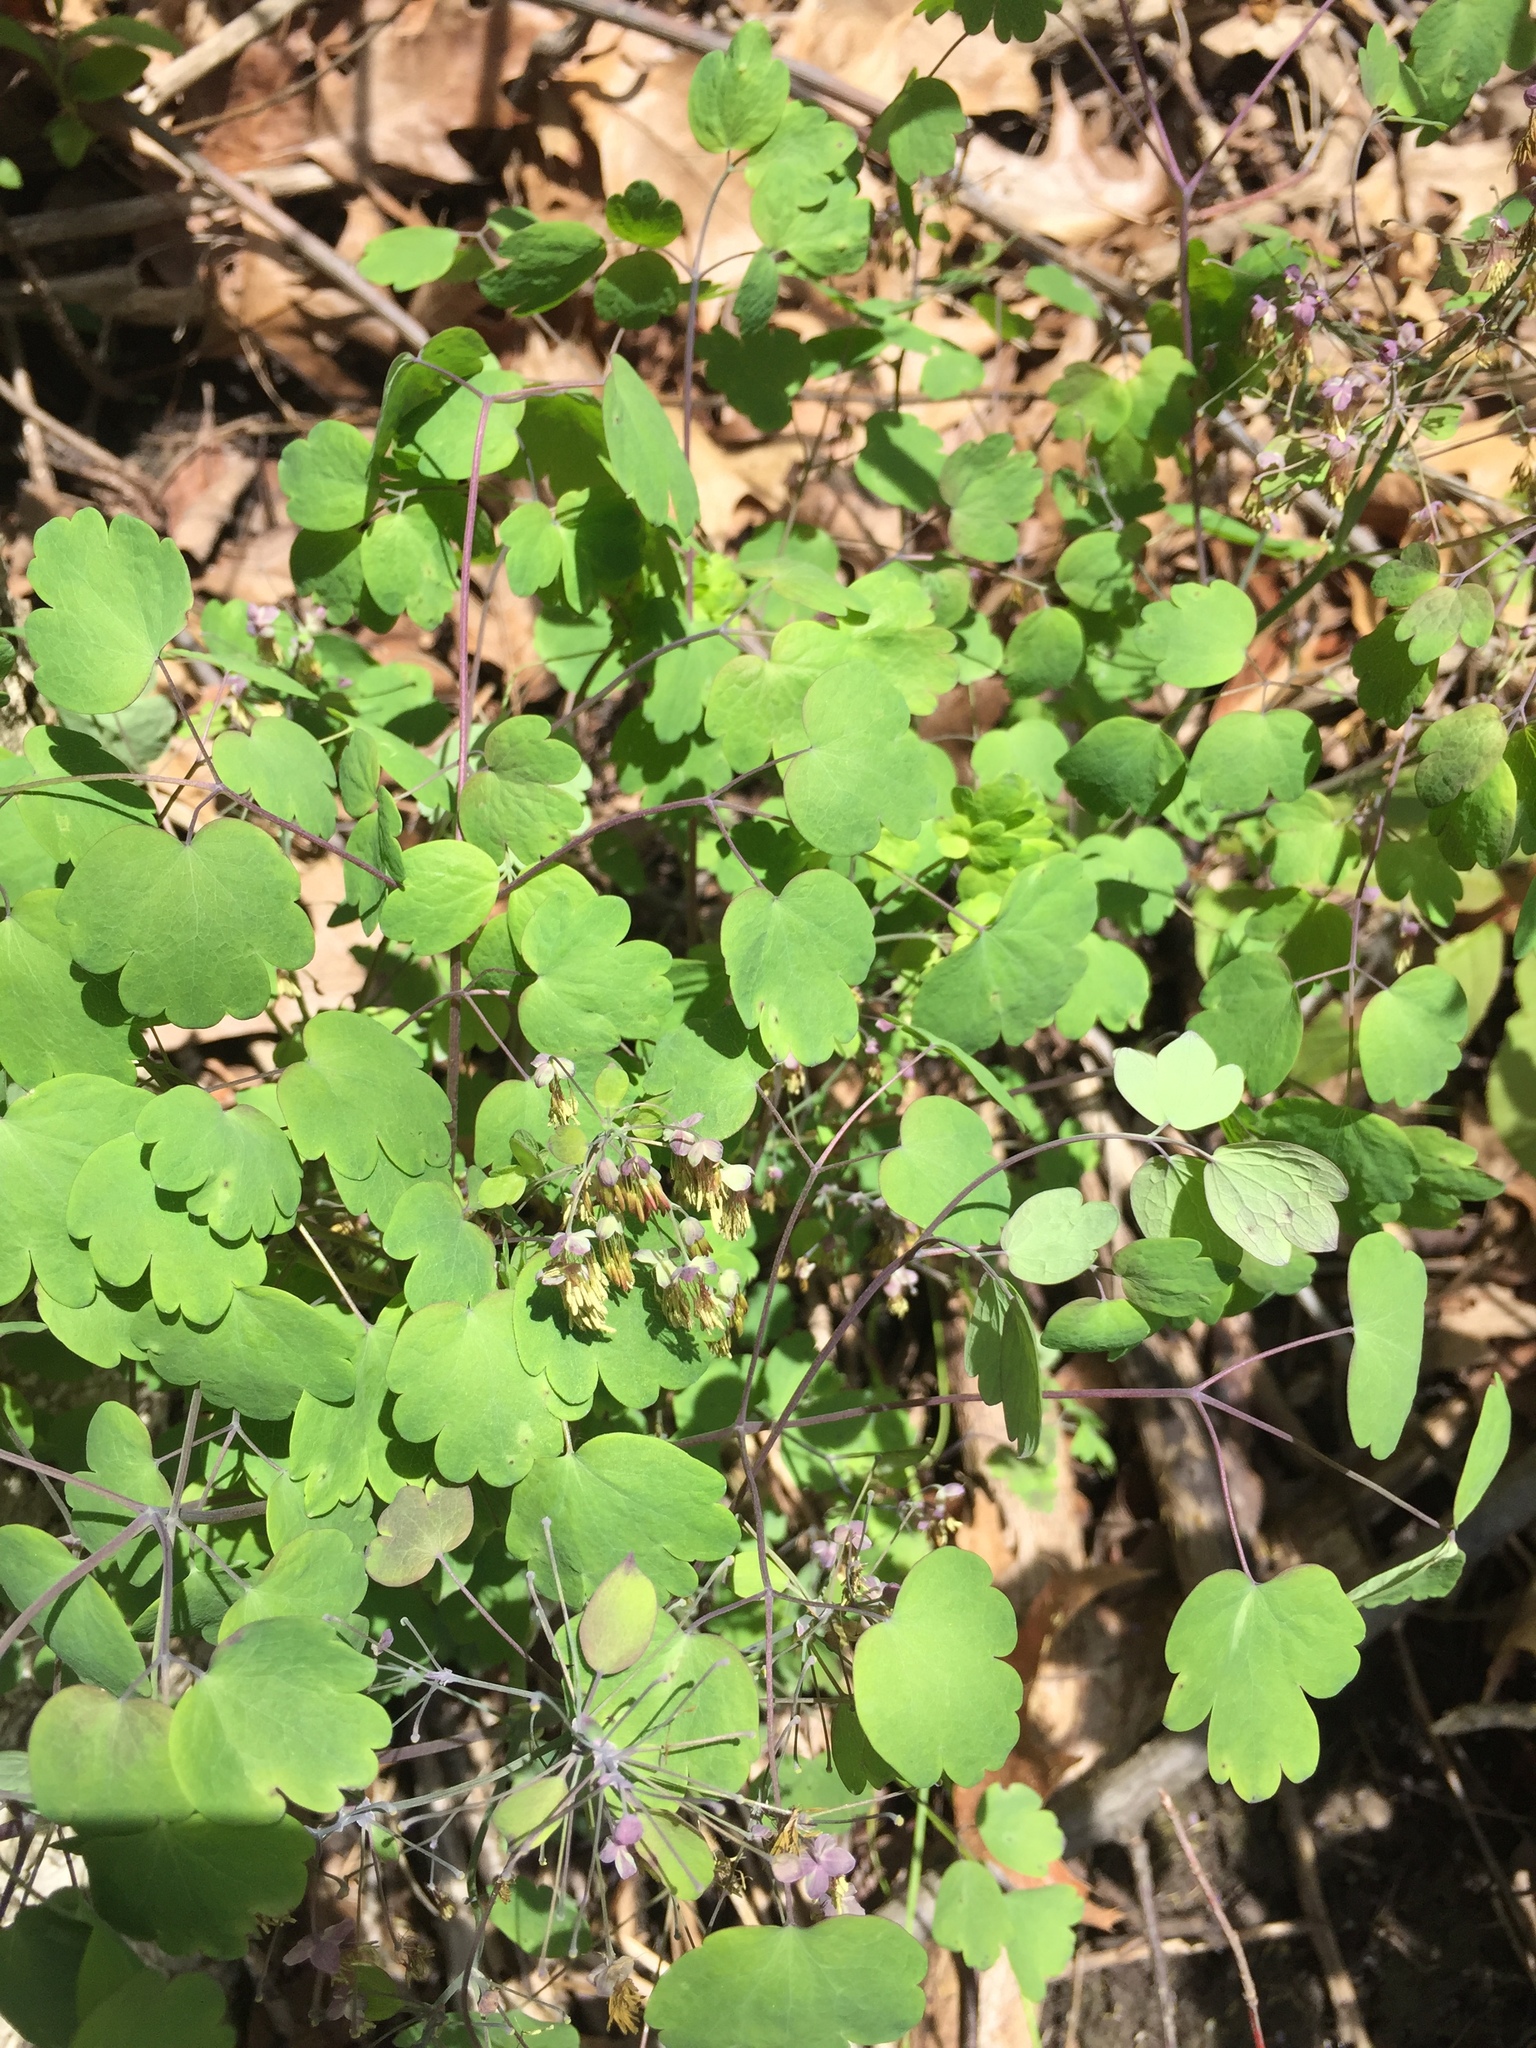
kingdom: Plantae
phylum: Tracheophyta
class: Magnoliopsida
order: Ranunculales
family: Ranunculaceae
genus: Thalictrum
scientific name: Thalictrum dioicum
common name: Early meadow-rue
